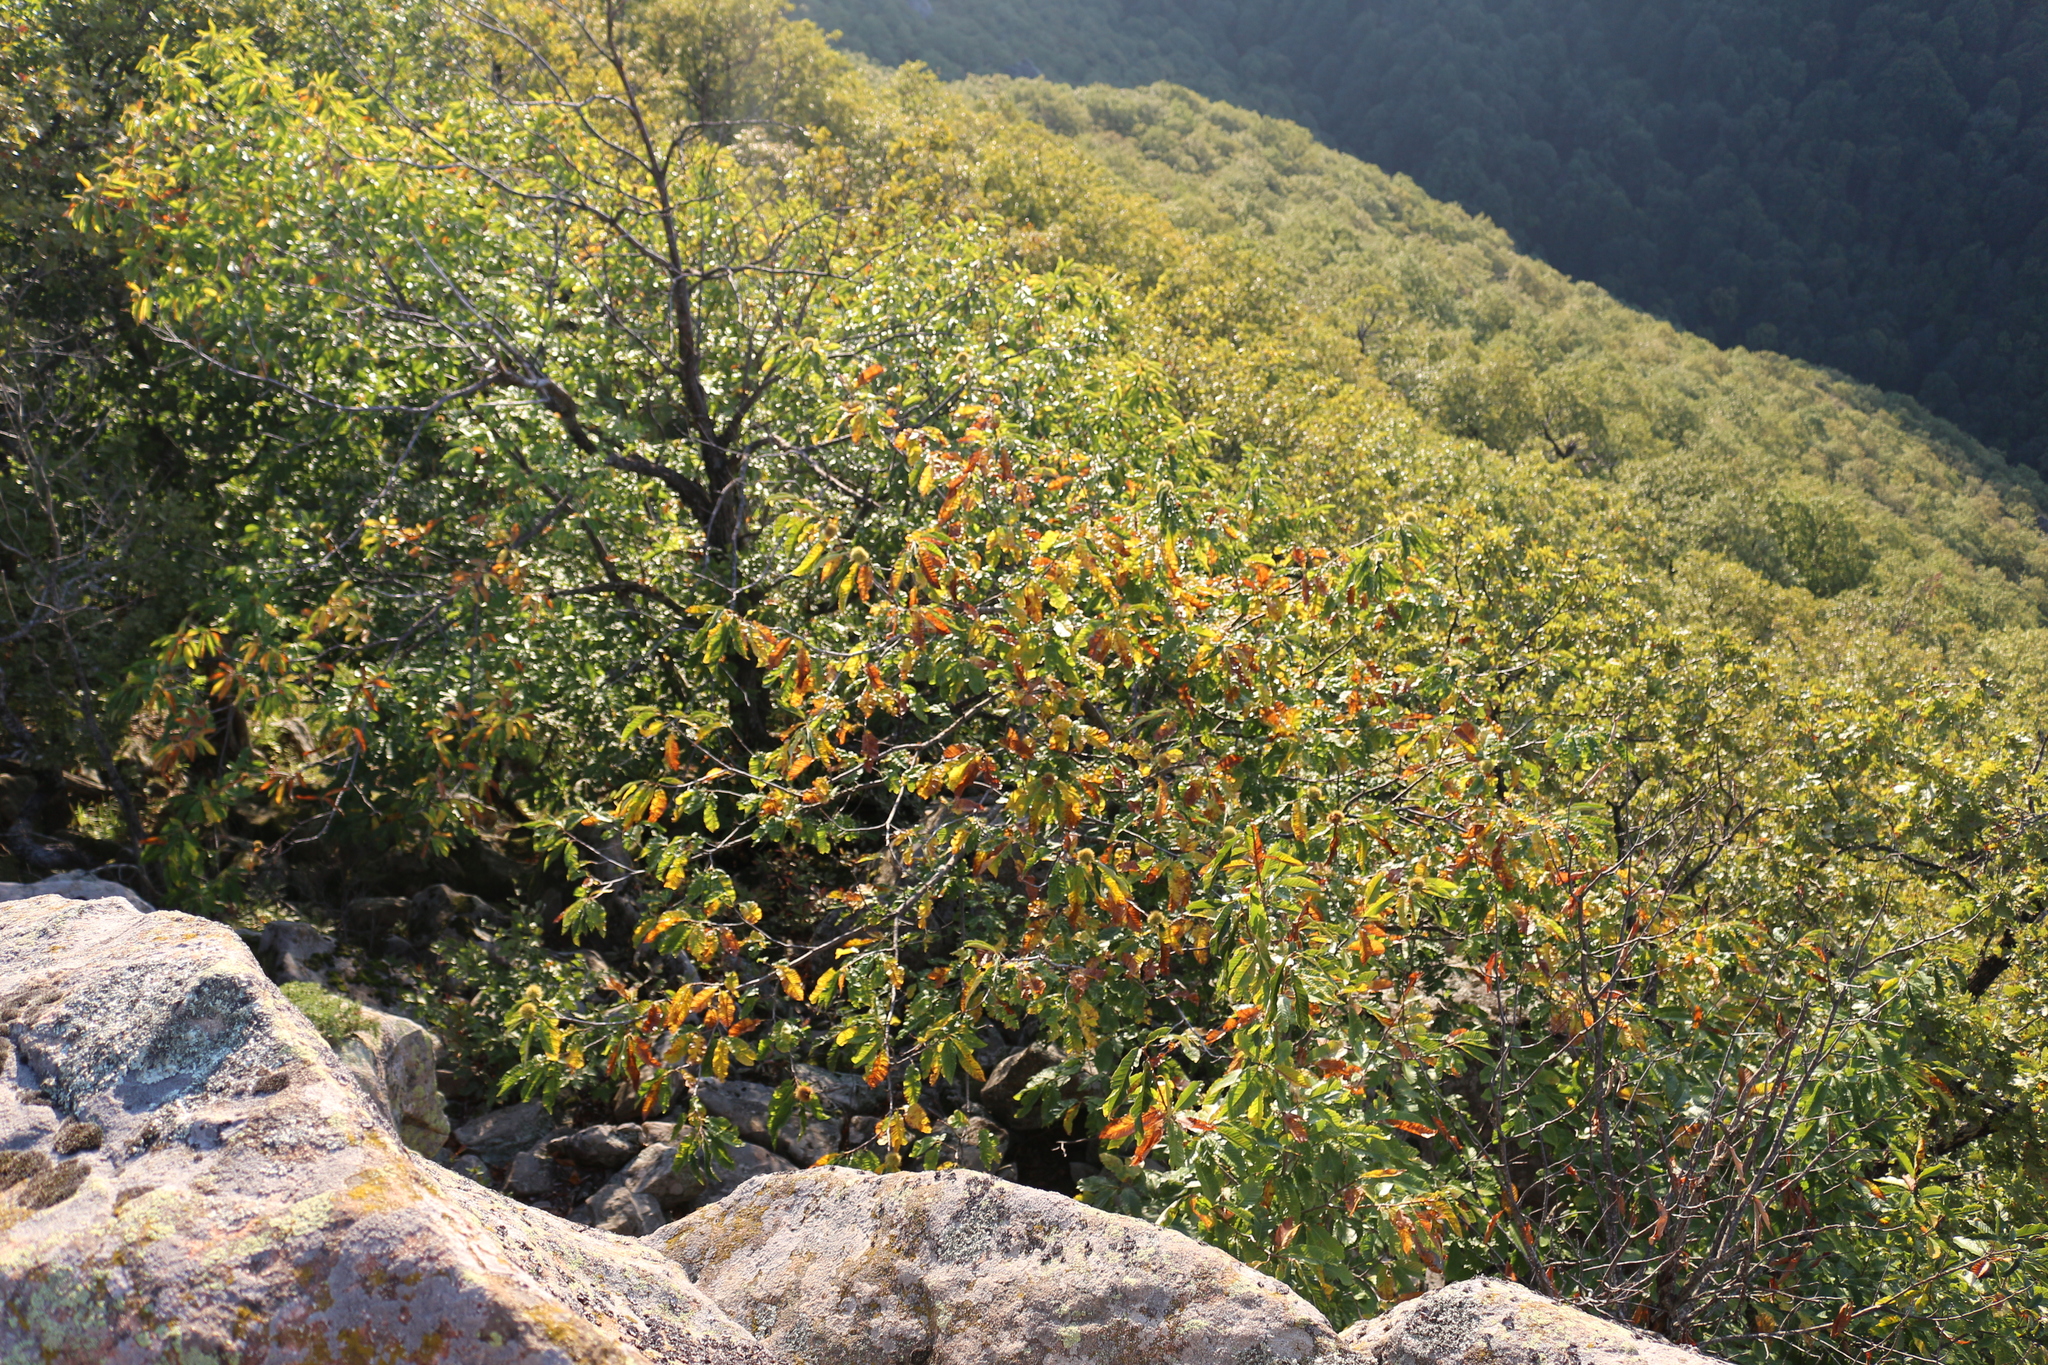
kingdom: Plantae
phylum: Tracheophyta
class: Magnoliopsida
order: Fagales
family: Fagaceae
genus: Castanea
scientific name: Castanea sativa
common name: Sweet chestnut
